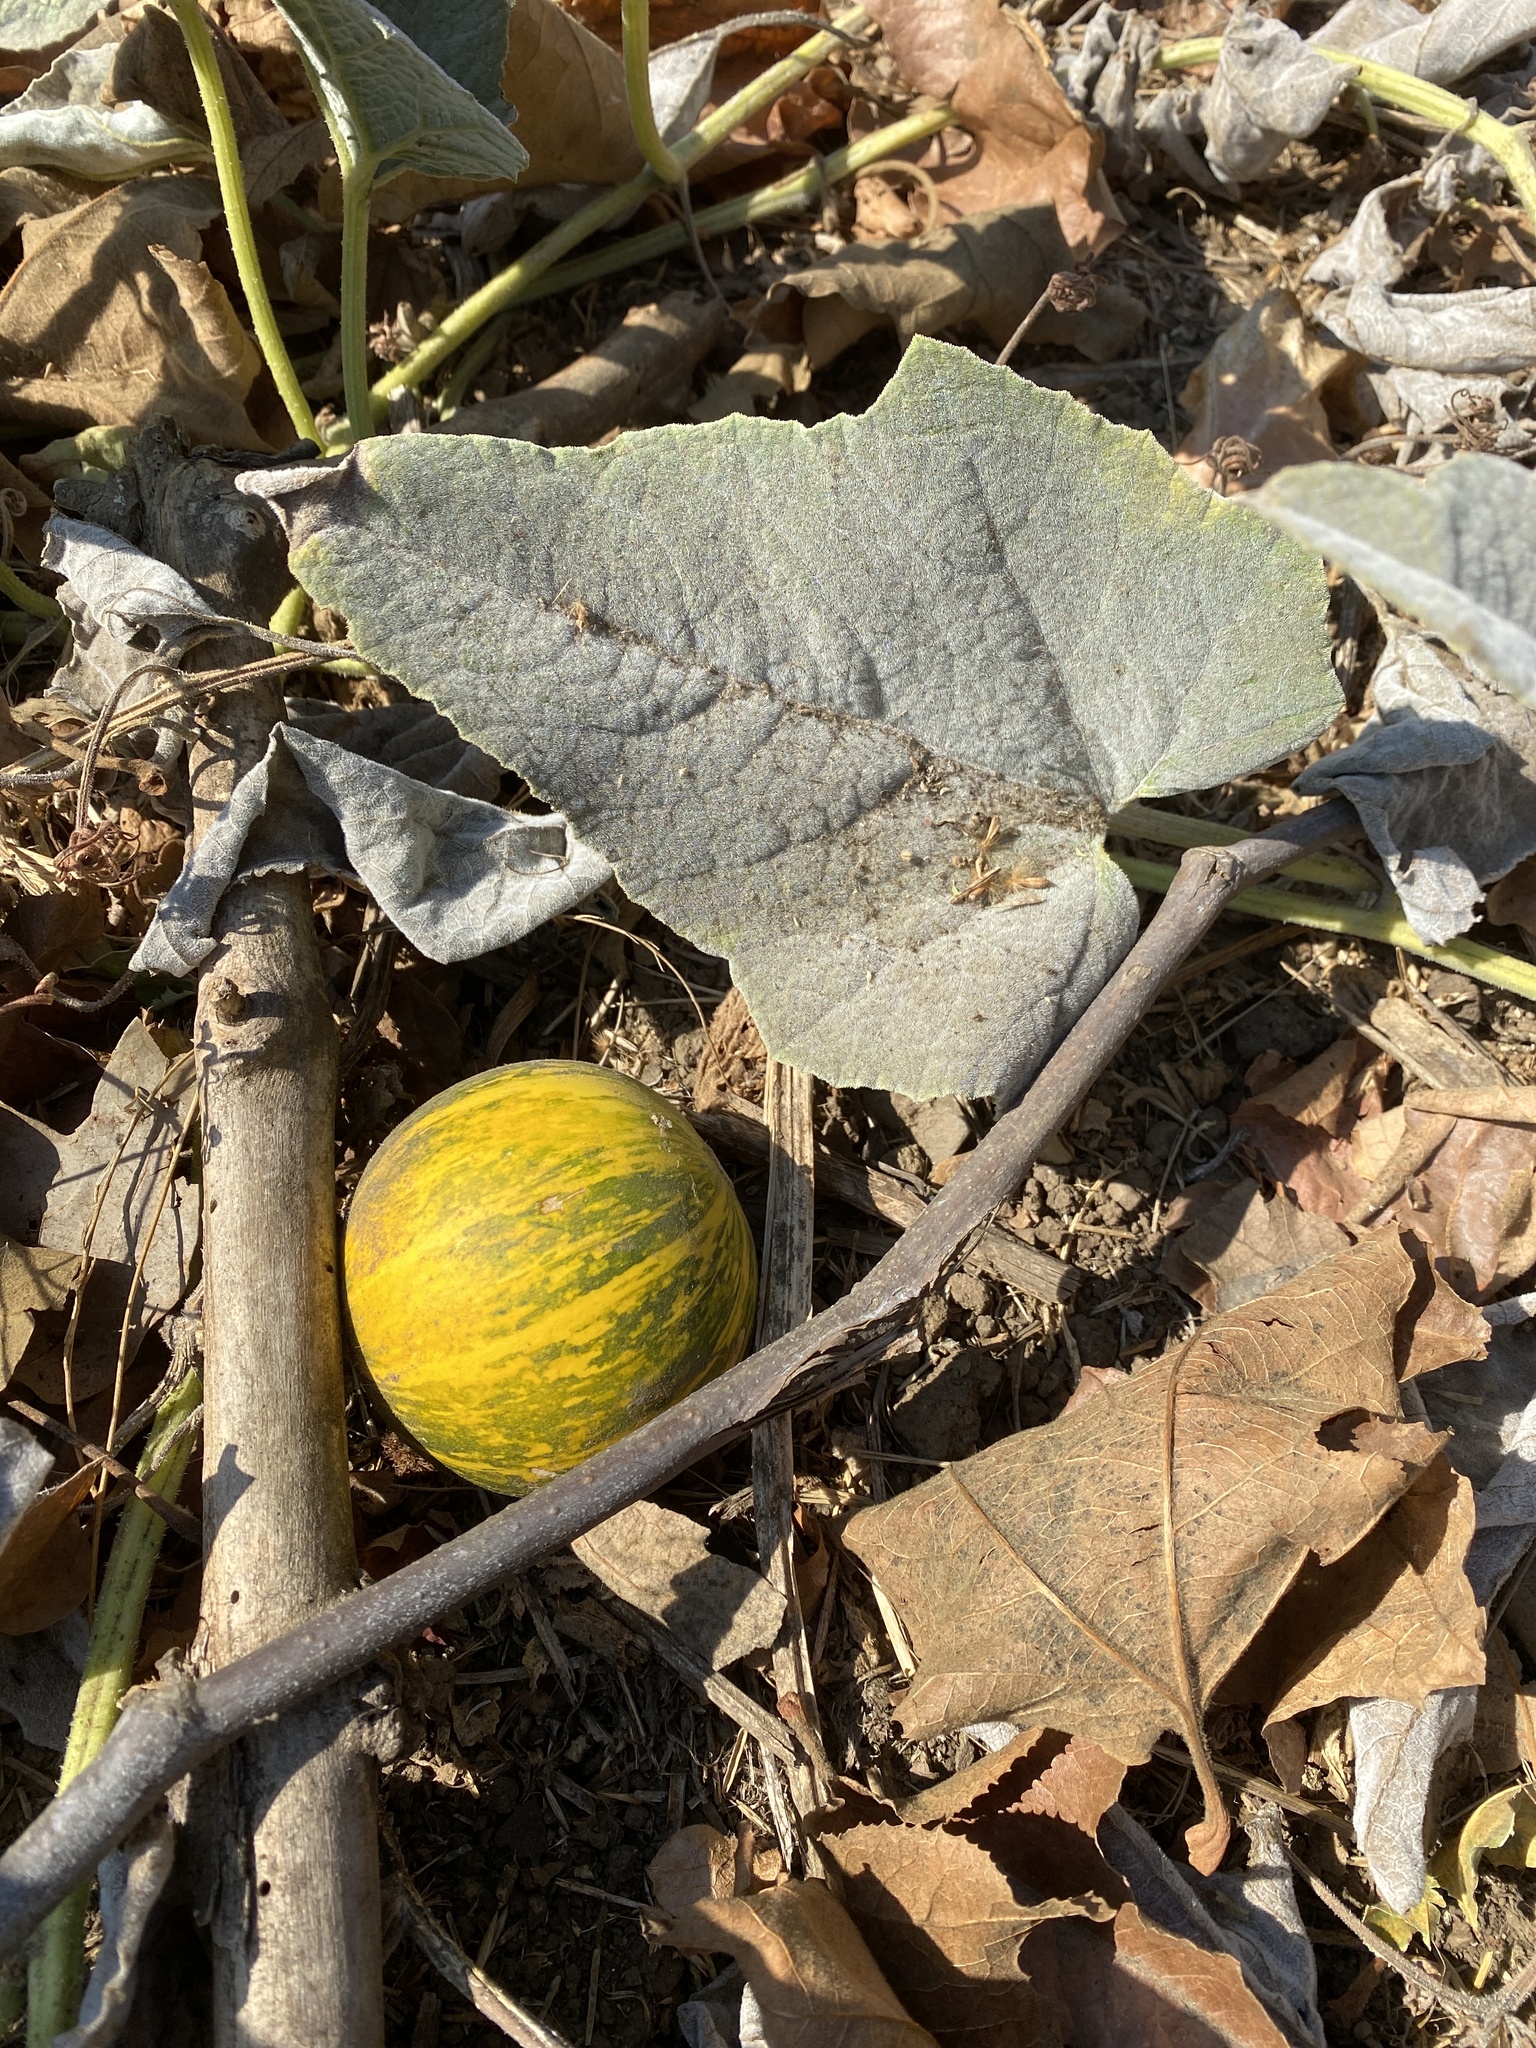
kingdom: Plantae
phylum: Tracheophyta
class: Magnoliopsida
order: Cucurbitales
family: Cucurbitaceae
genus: Cucurbita
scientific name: Cucurbita foetidissima
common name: Buffalo gourd
